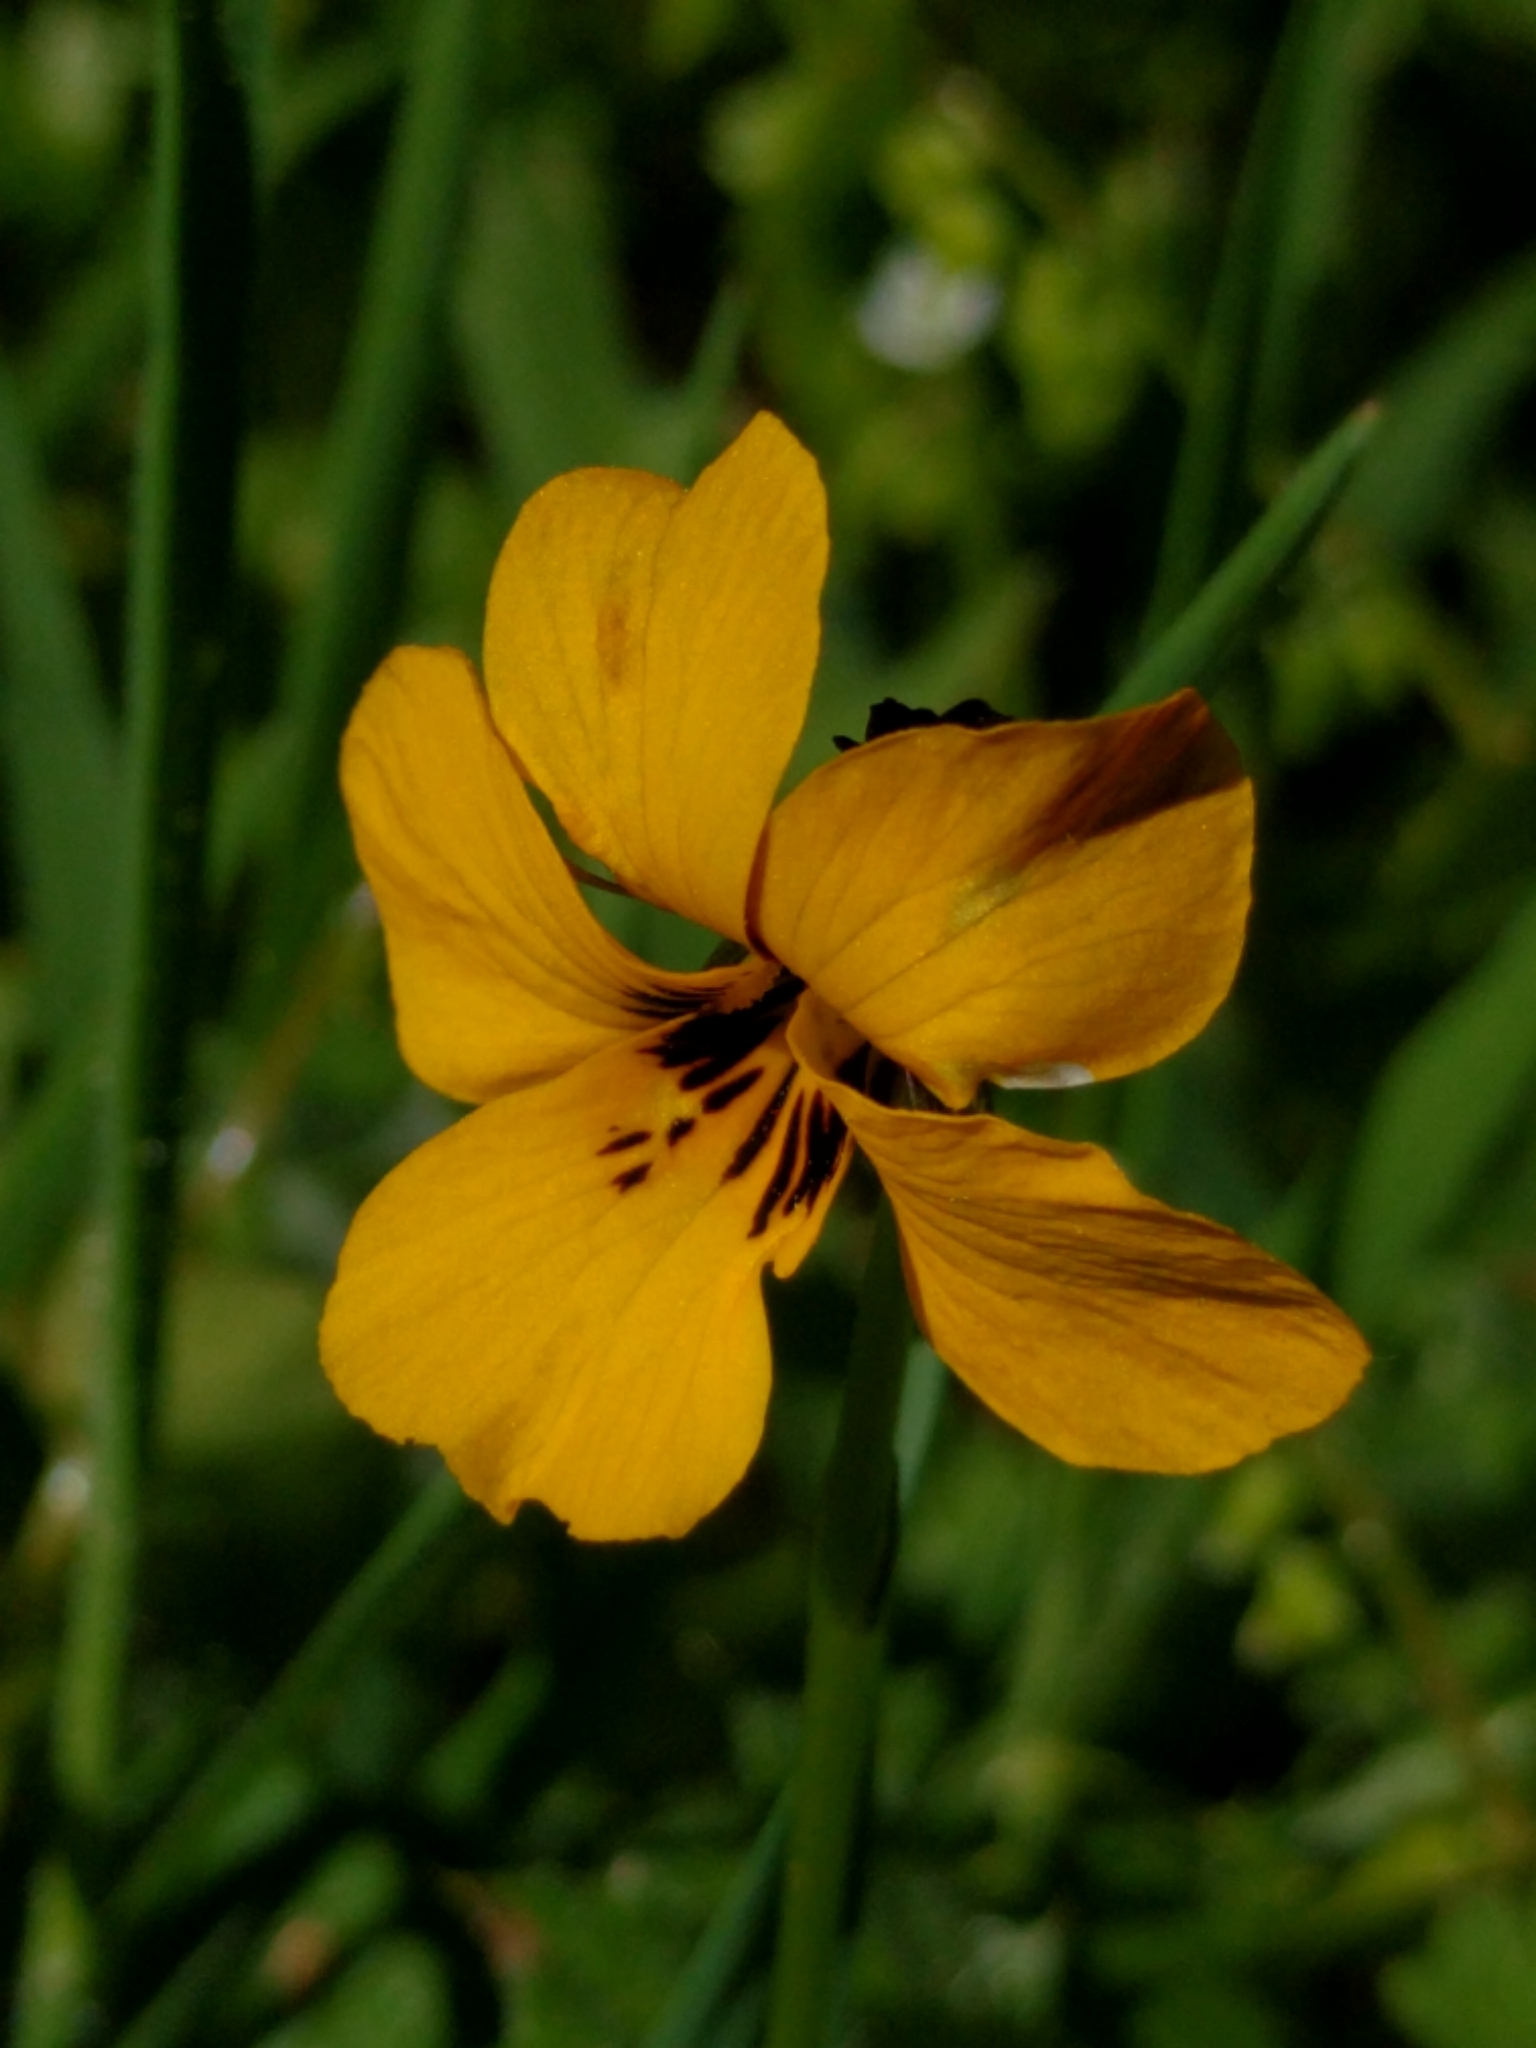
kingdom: Plantae
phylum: Tracheophyta
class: Magnoliopsida
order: Malpighiales
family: Violaceae
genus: Viola
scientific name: Viola pedunculata
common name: California golden violet
